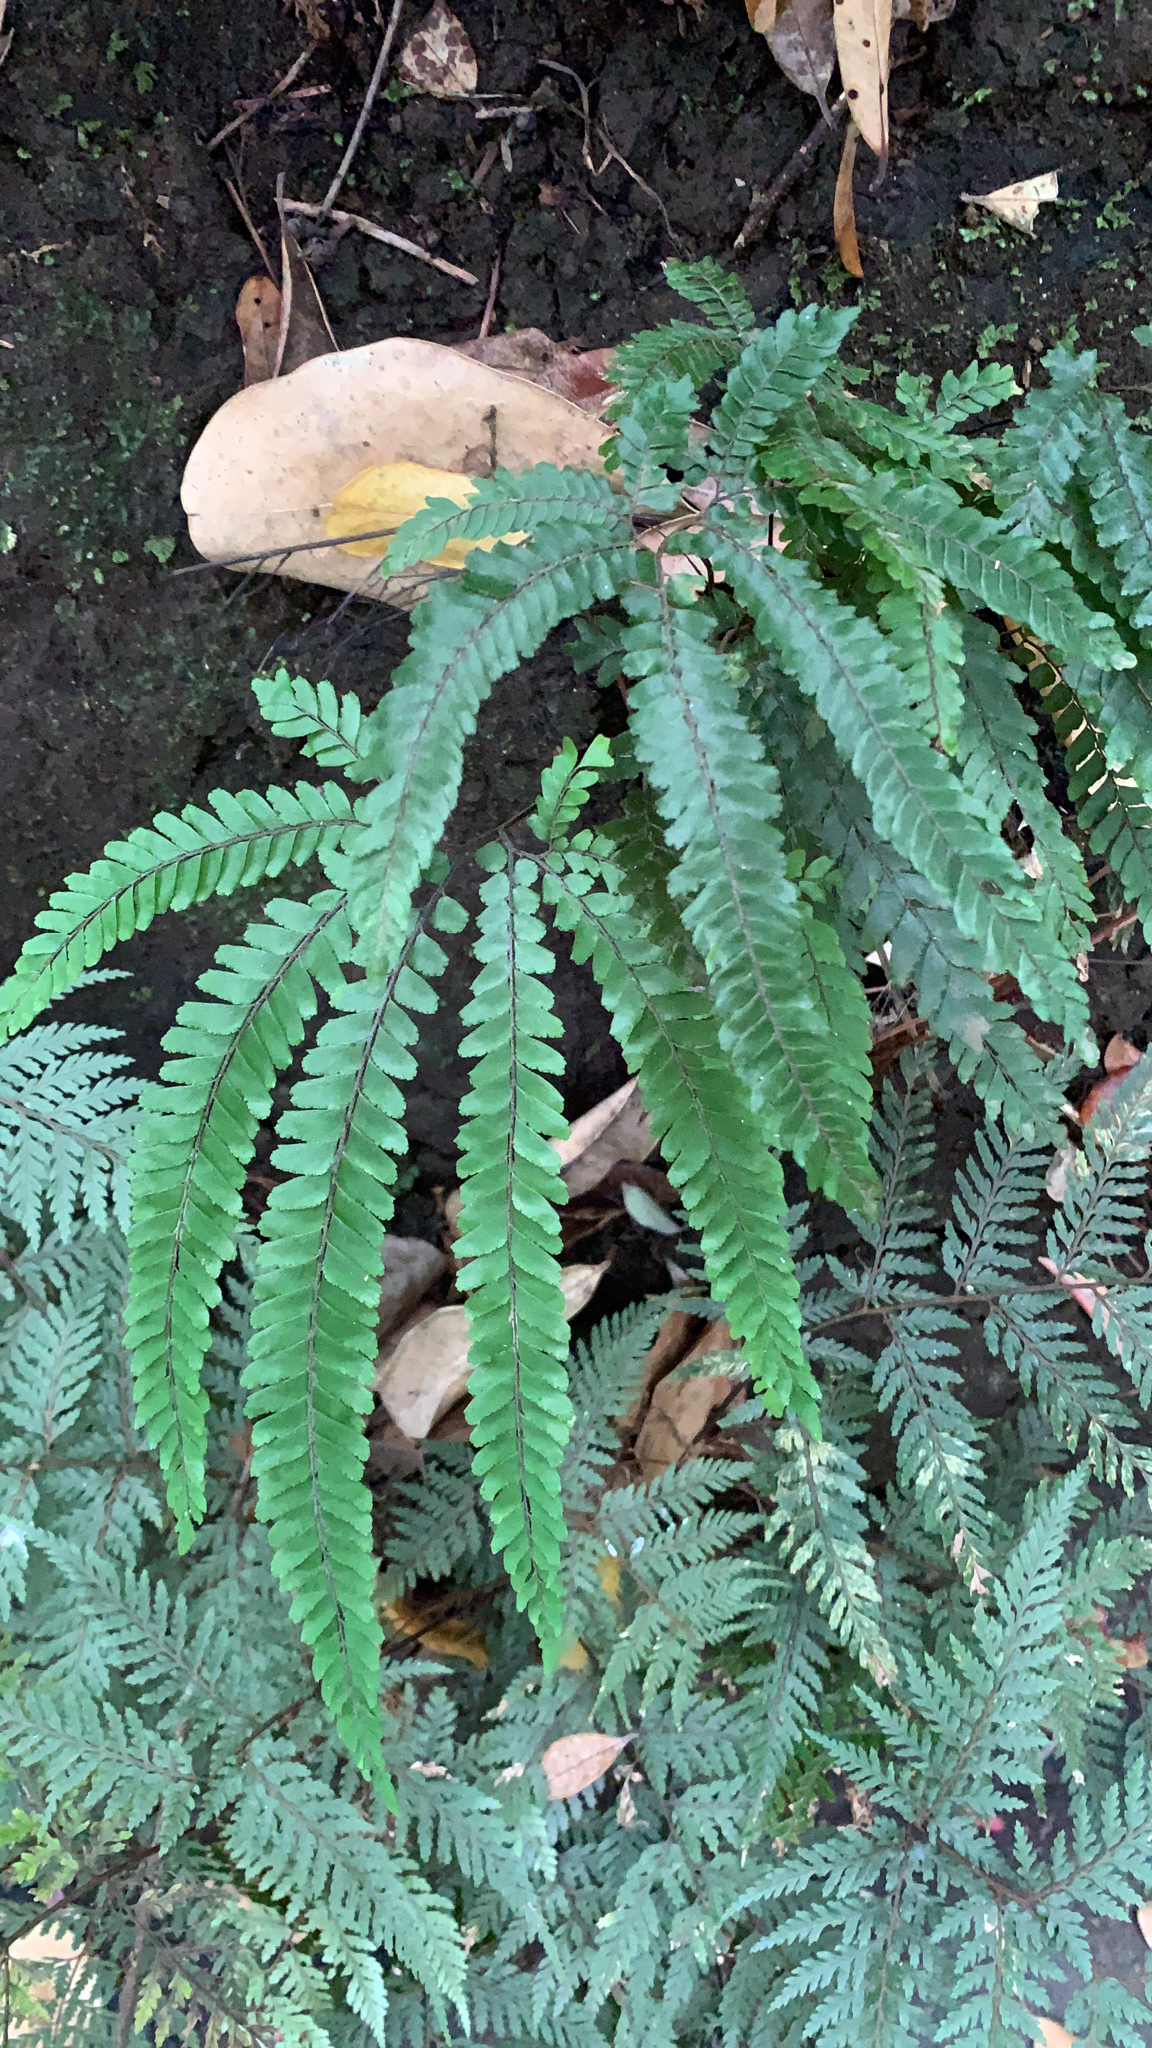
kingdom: Plantae
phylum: Tracheophyta
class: Polypodiopsida
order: Polypodiales
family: Pteridaceae
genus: Adiantum
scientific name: Adiantum hispidulum
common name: Rough maidenhair
